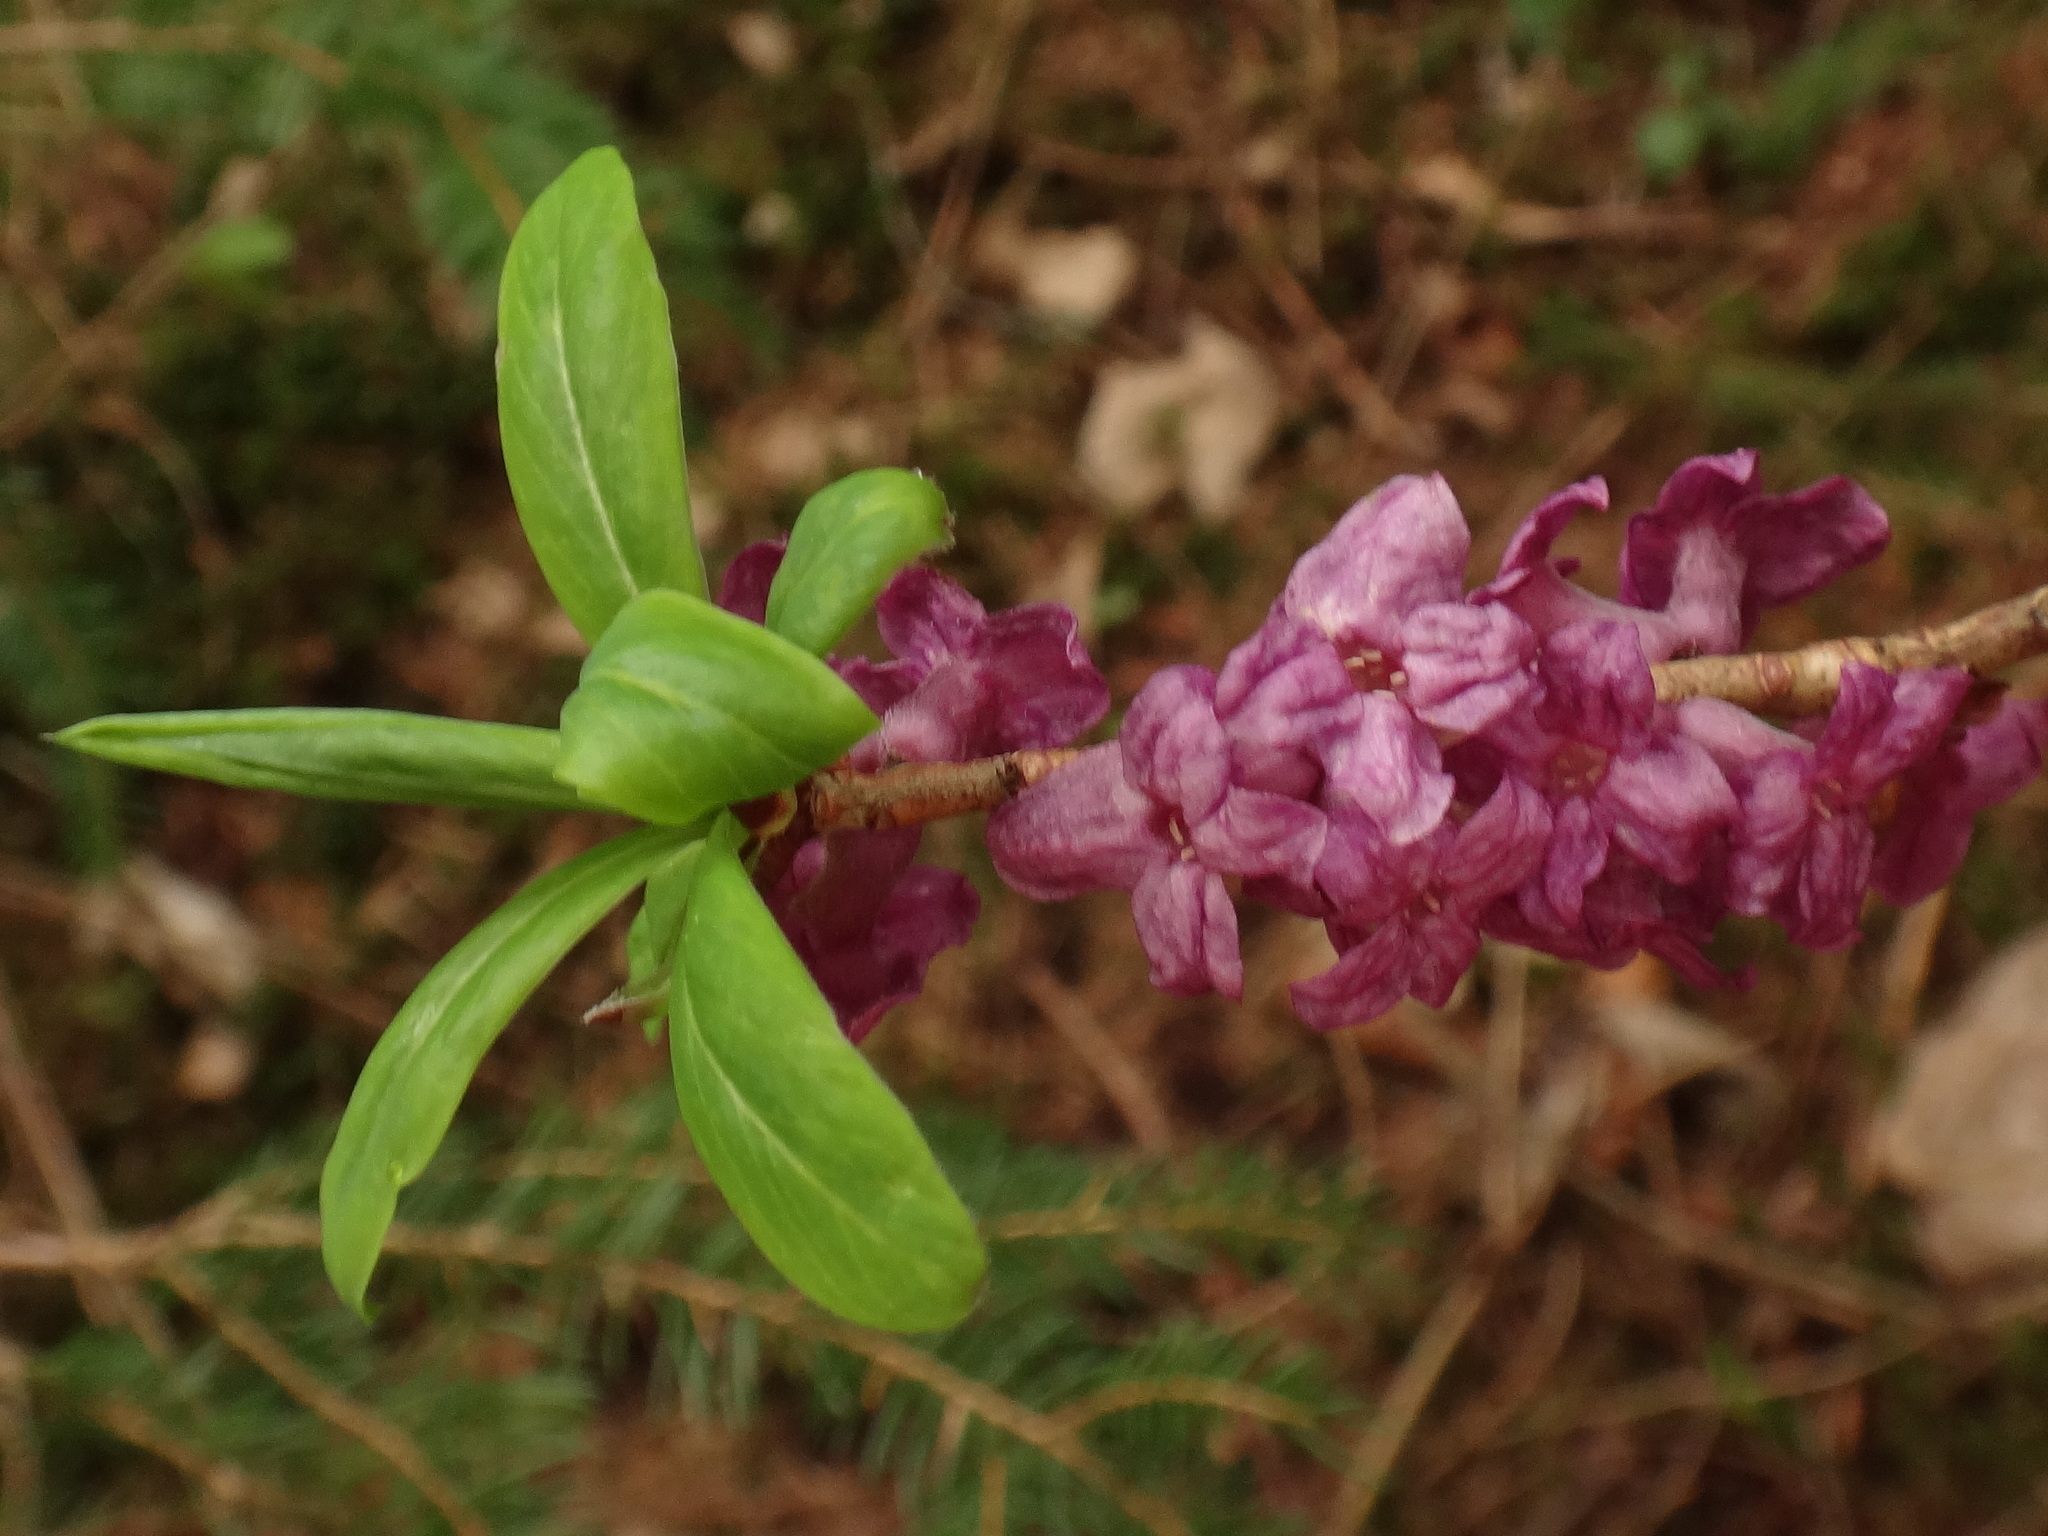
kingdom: Plantae
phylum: Tracheophyta
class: Magnoliopsida
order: Malvales
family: Thymelaeaceae
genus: Daphne
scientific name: Daphne mezereum
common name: Mezereon
